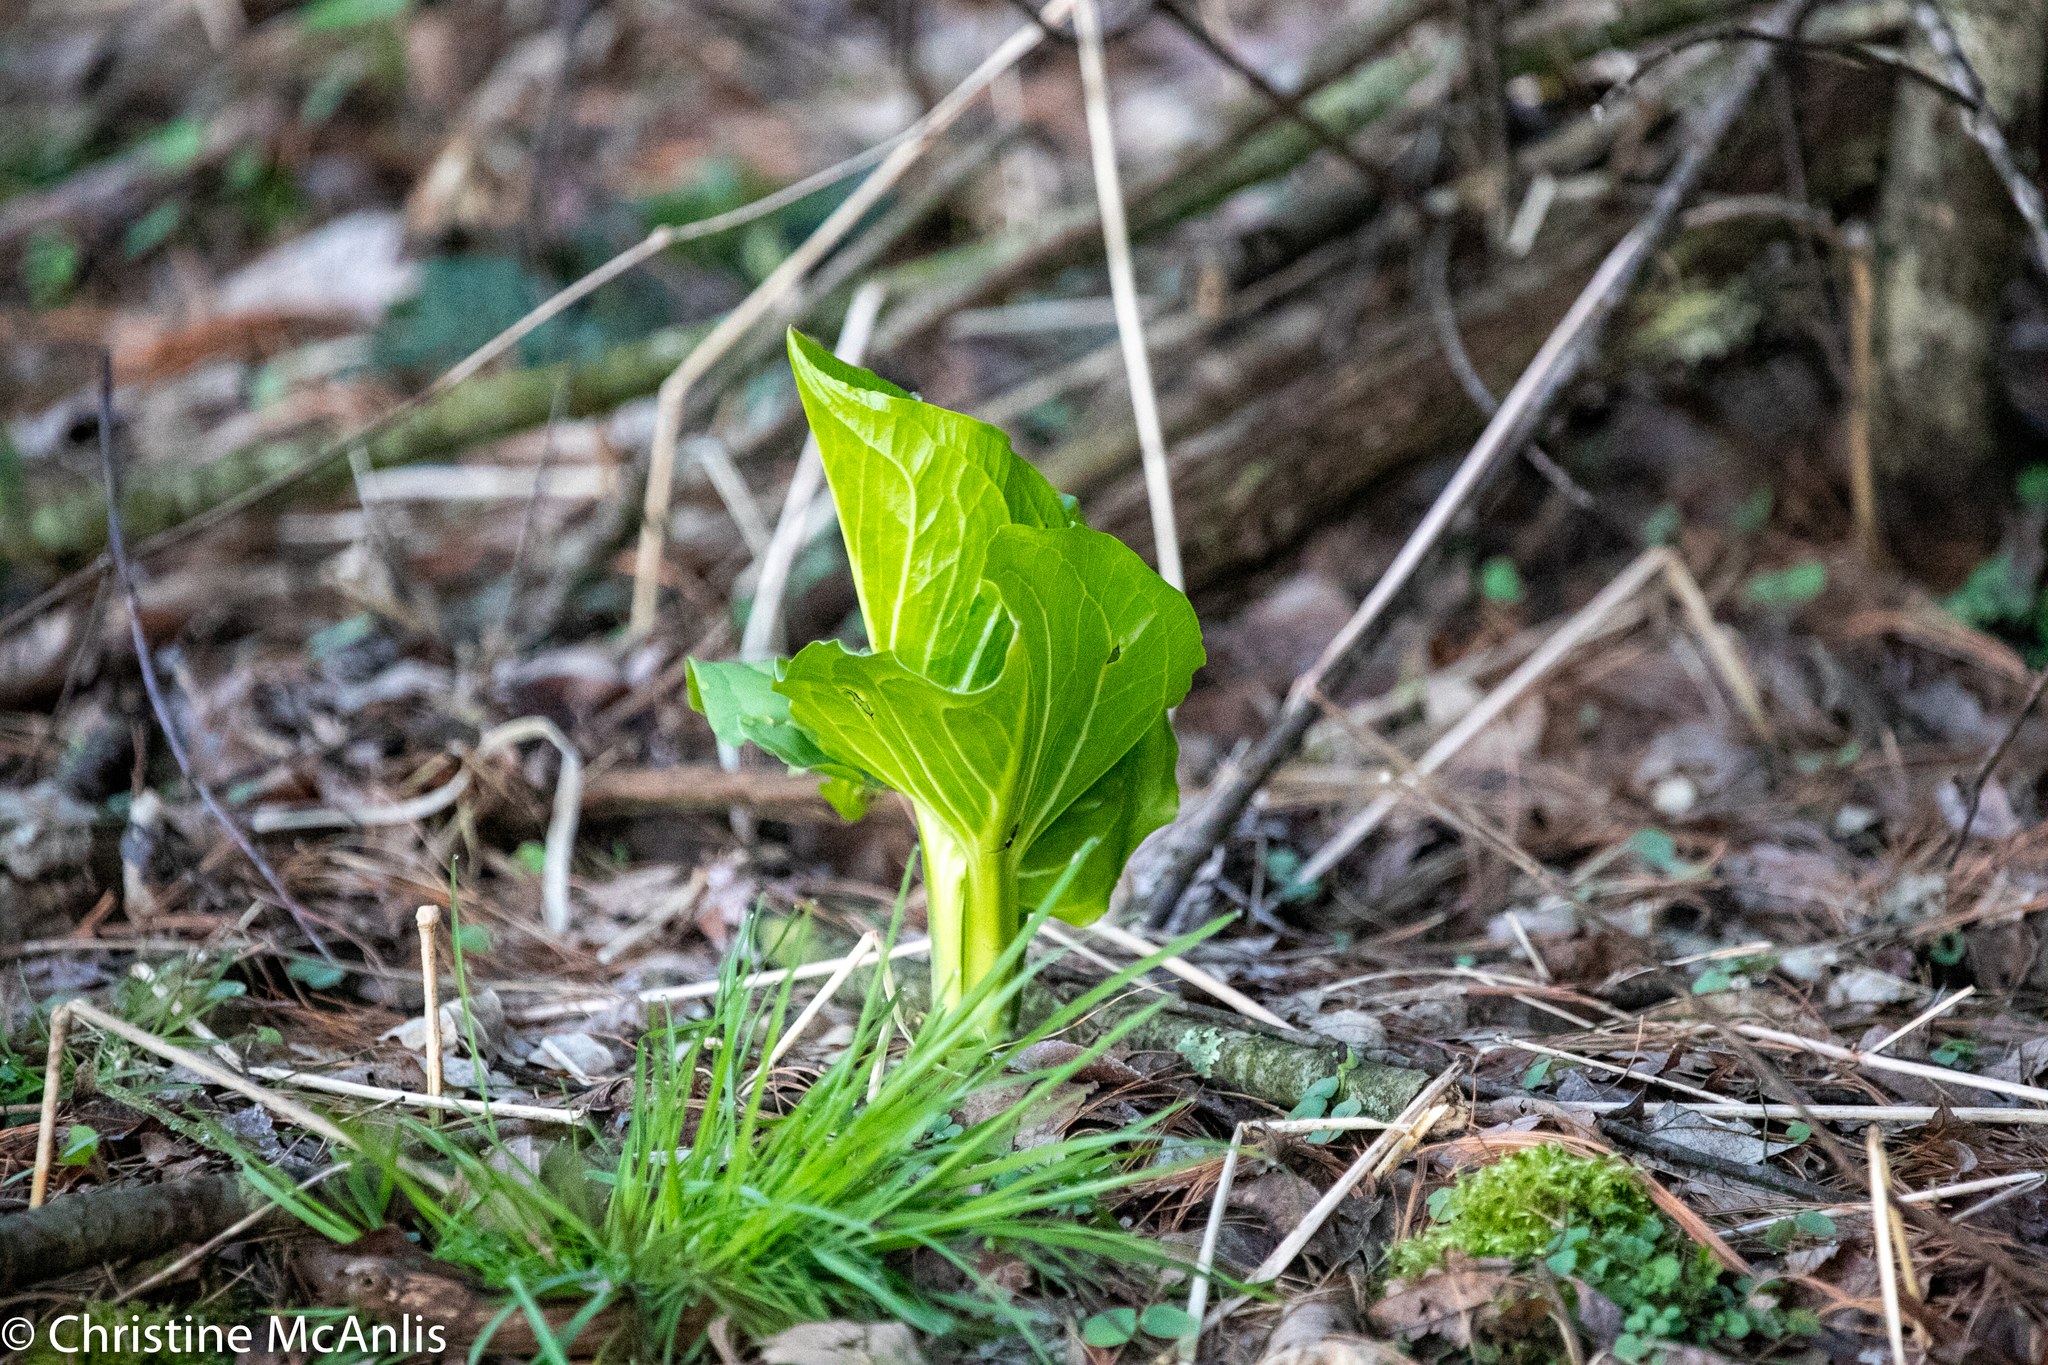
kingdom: Plantae
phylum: Tracheophyta
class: Liliopsida
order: Alismatales
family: Araceae
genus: Symplocarpus
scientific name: Symplocarpus foetidus
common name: Eastern skunk cabbage
